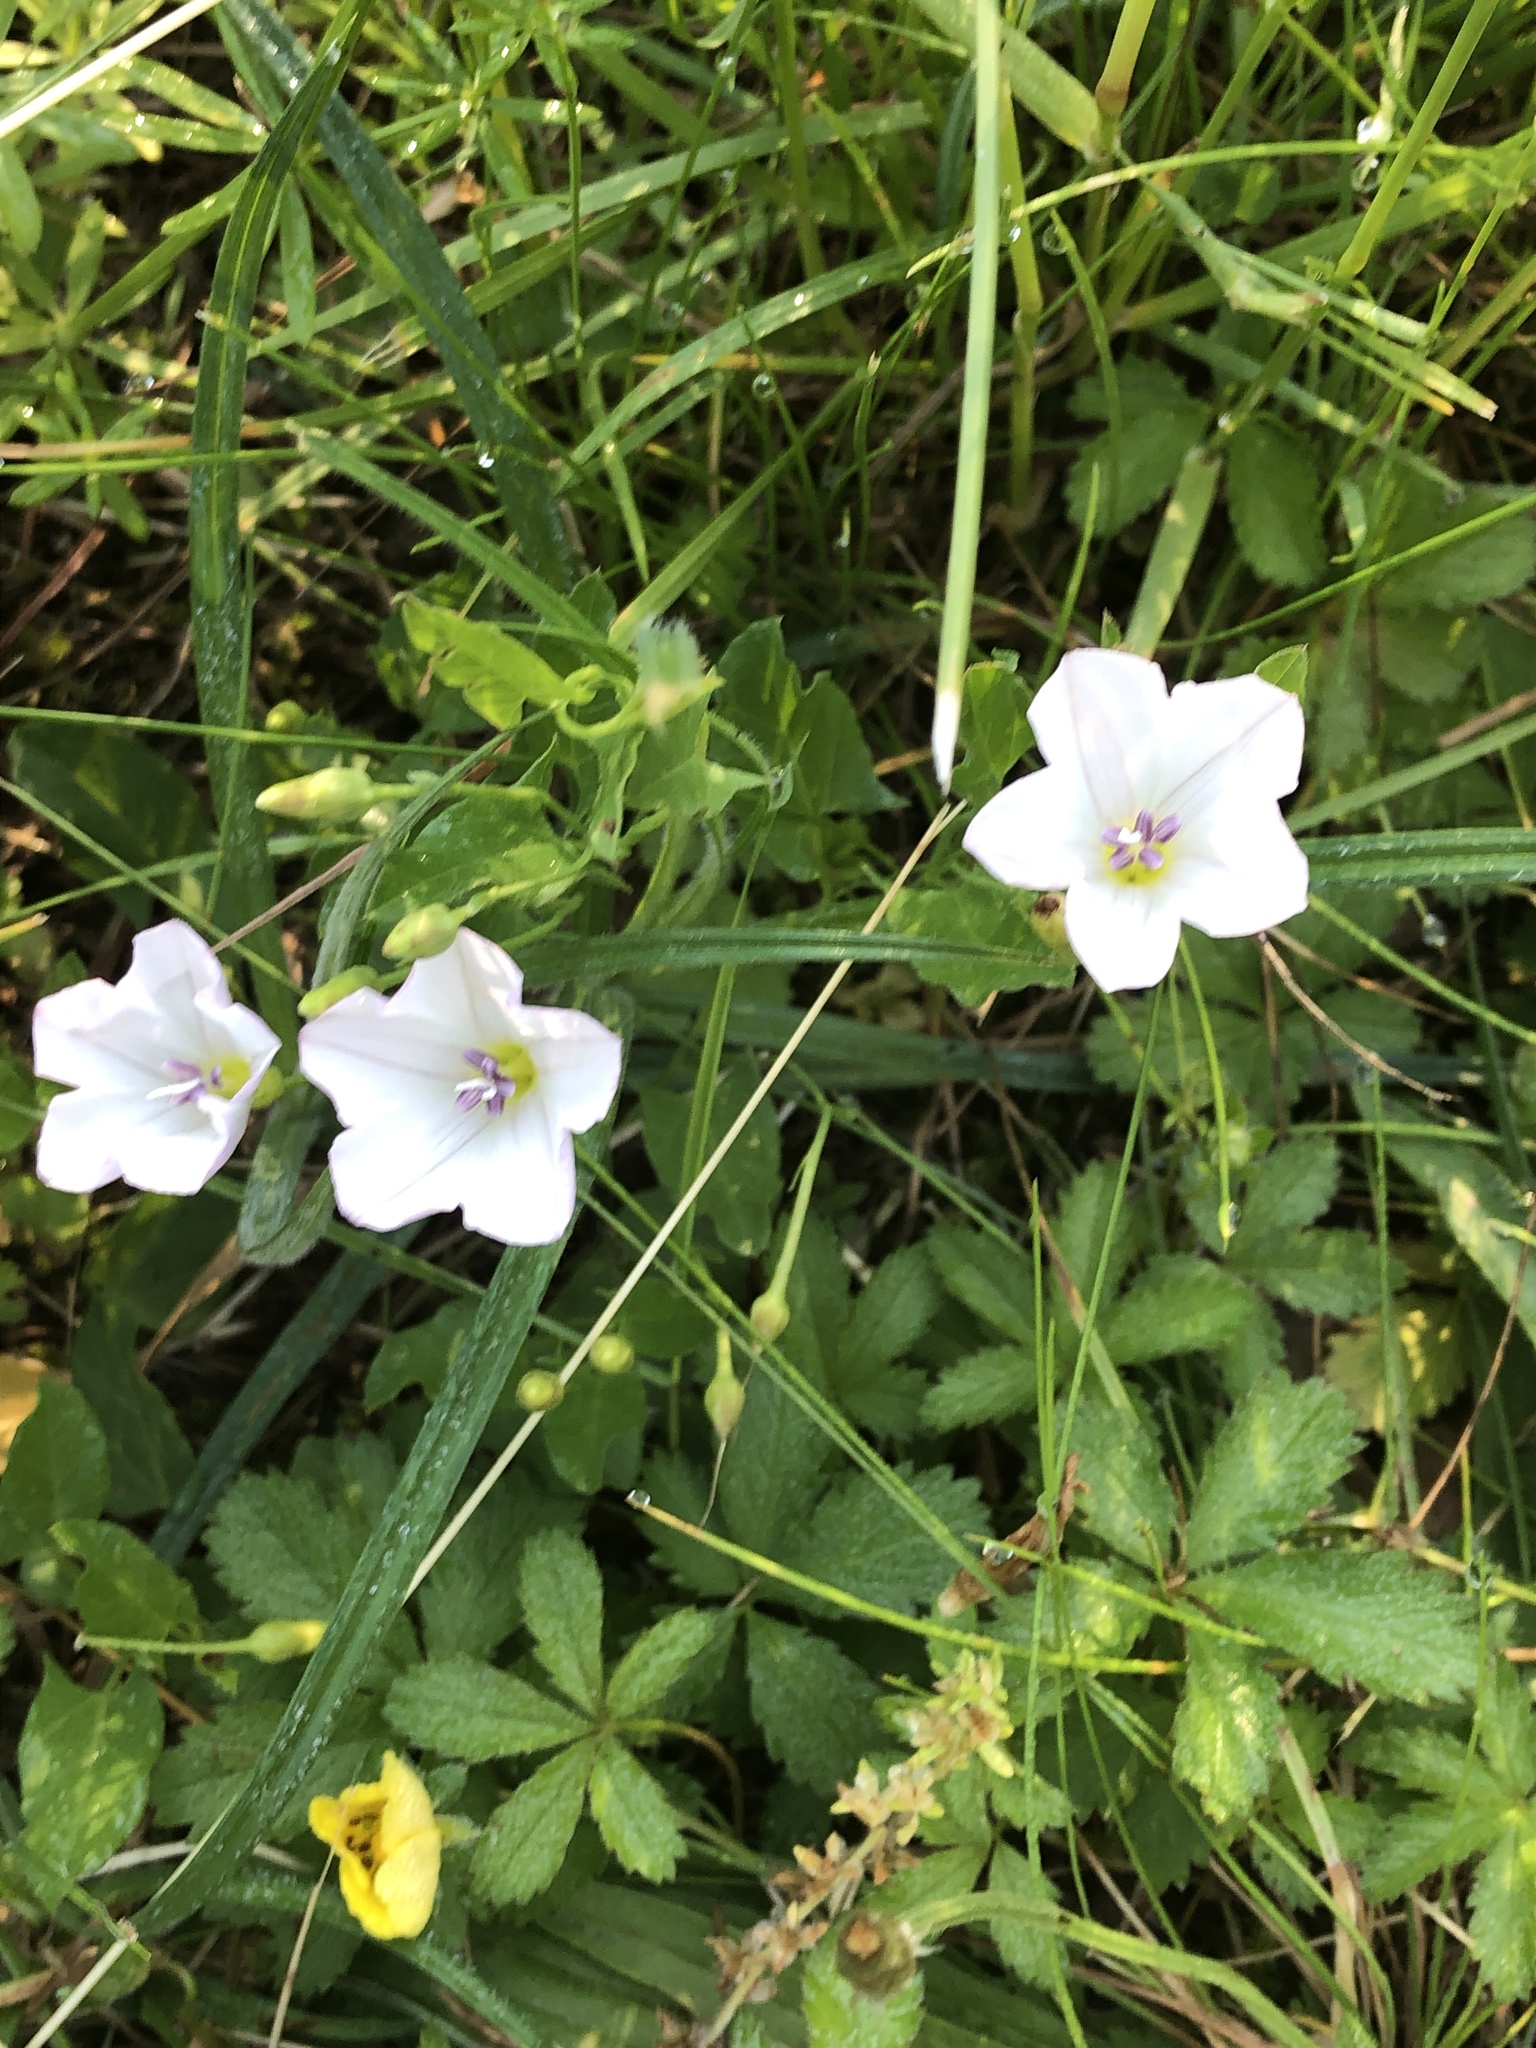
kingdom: Plantae
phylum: Tracheophyta
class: Magnoliopsida
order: Solanales
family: Convolvulaceae
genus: Convolvulus
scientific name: Convolvulus arvensis
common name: Field bindweed
